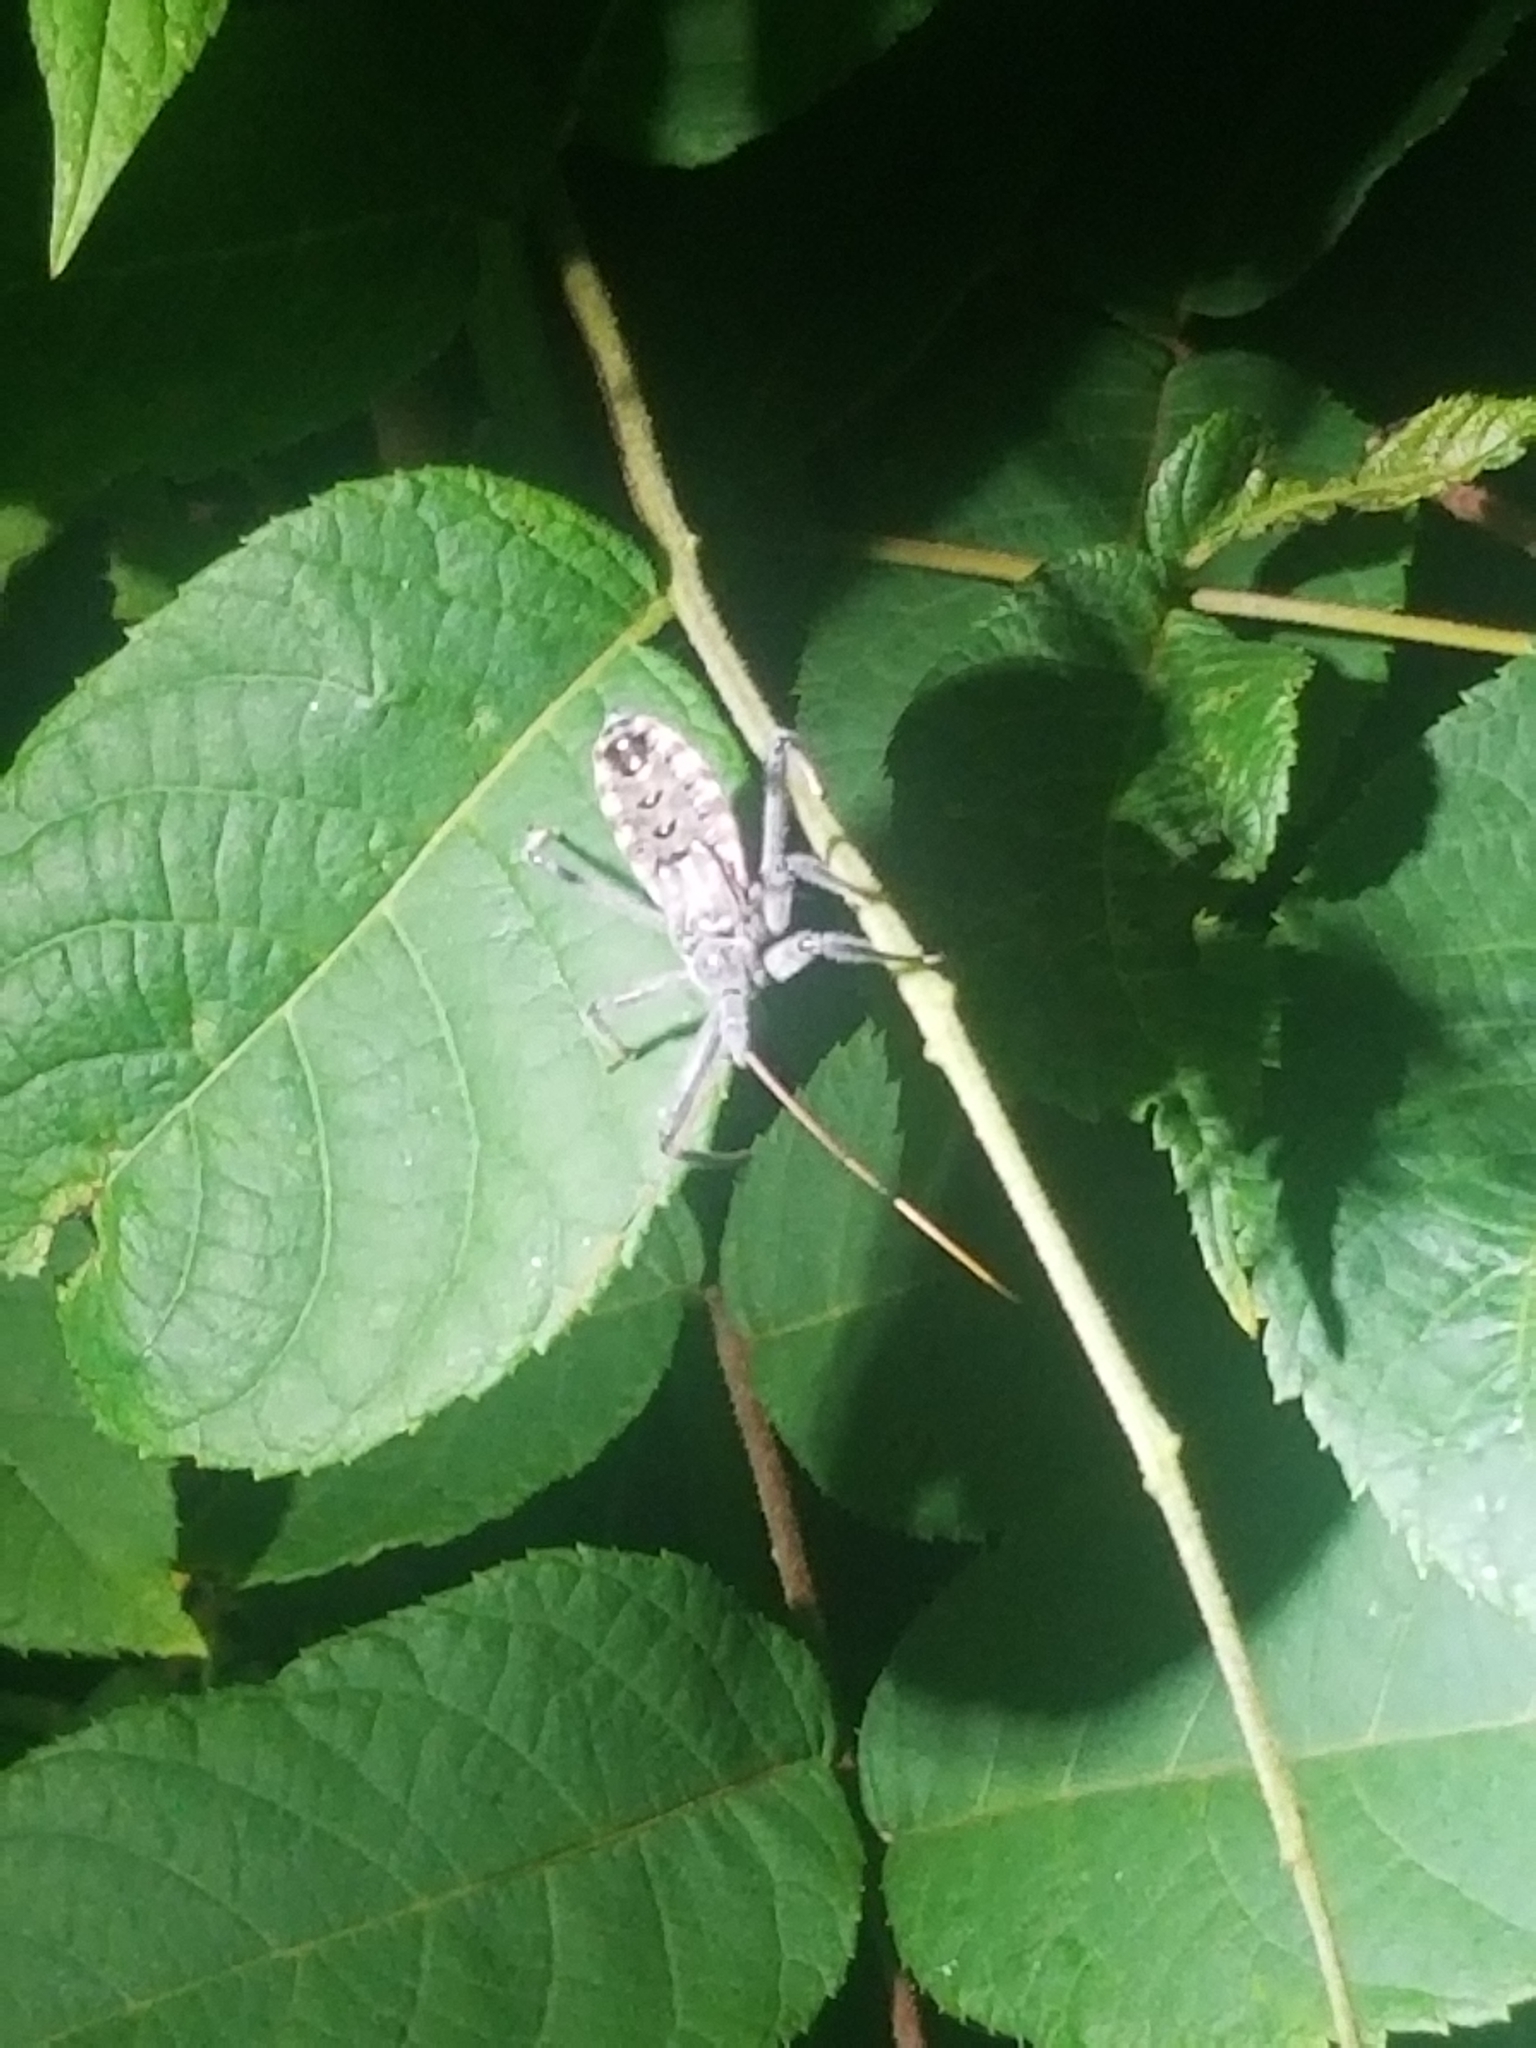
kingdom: Animalia
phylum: Arthropoda
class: Insecta
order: Hemiptera
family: Reduviidae
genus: Arilus
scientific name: Arilus cristatus
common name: North american wheel bug
